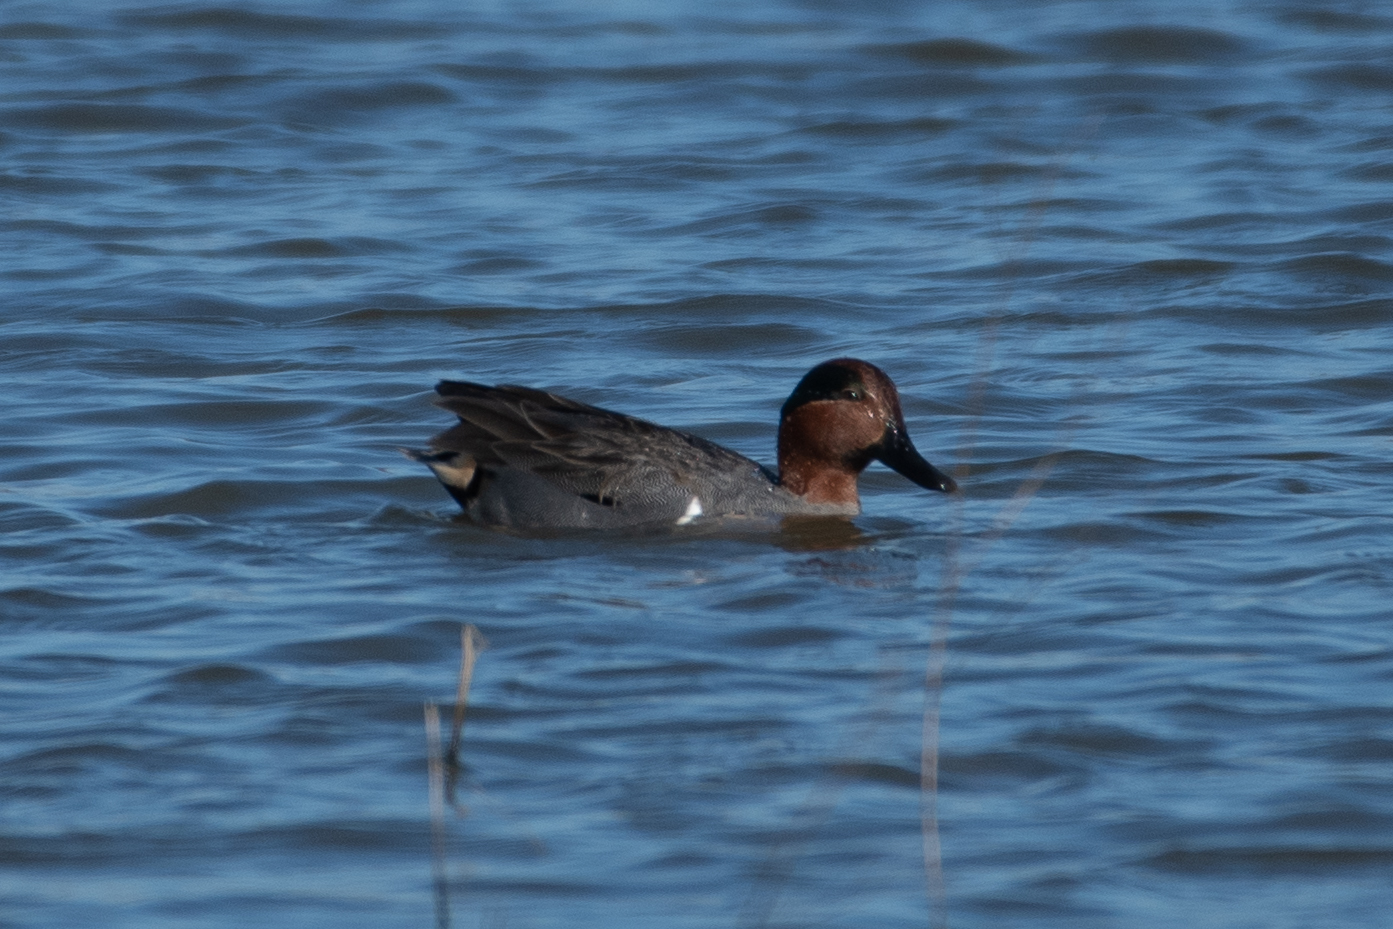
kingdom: Animalia
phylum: Chordata
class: Aves
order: Anseriformes
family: Anatidae
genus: Anas
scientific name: Anas crecca
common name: Eurasian teal
